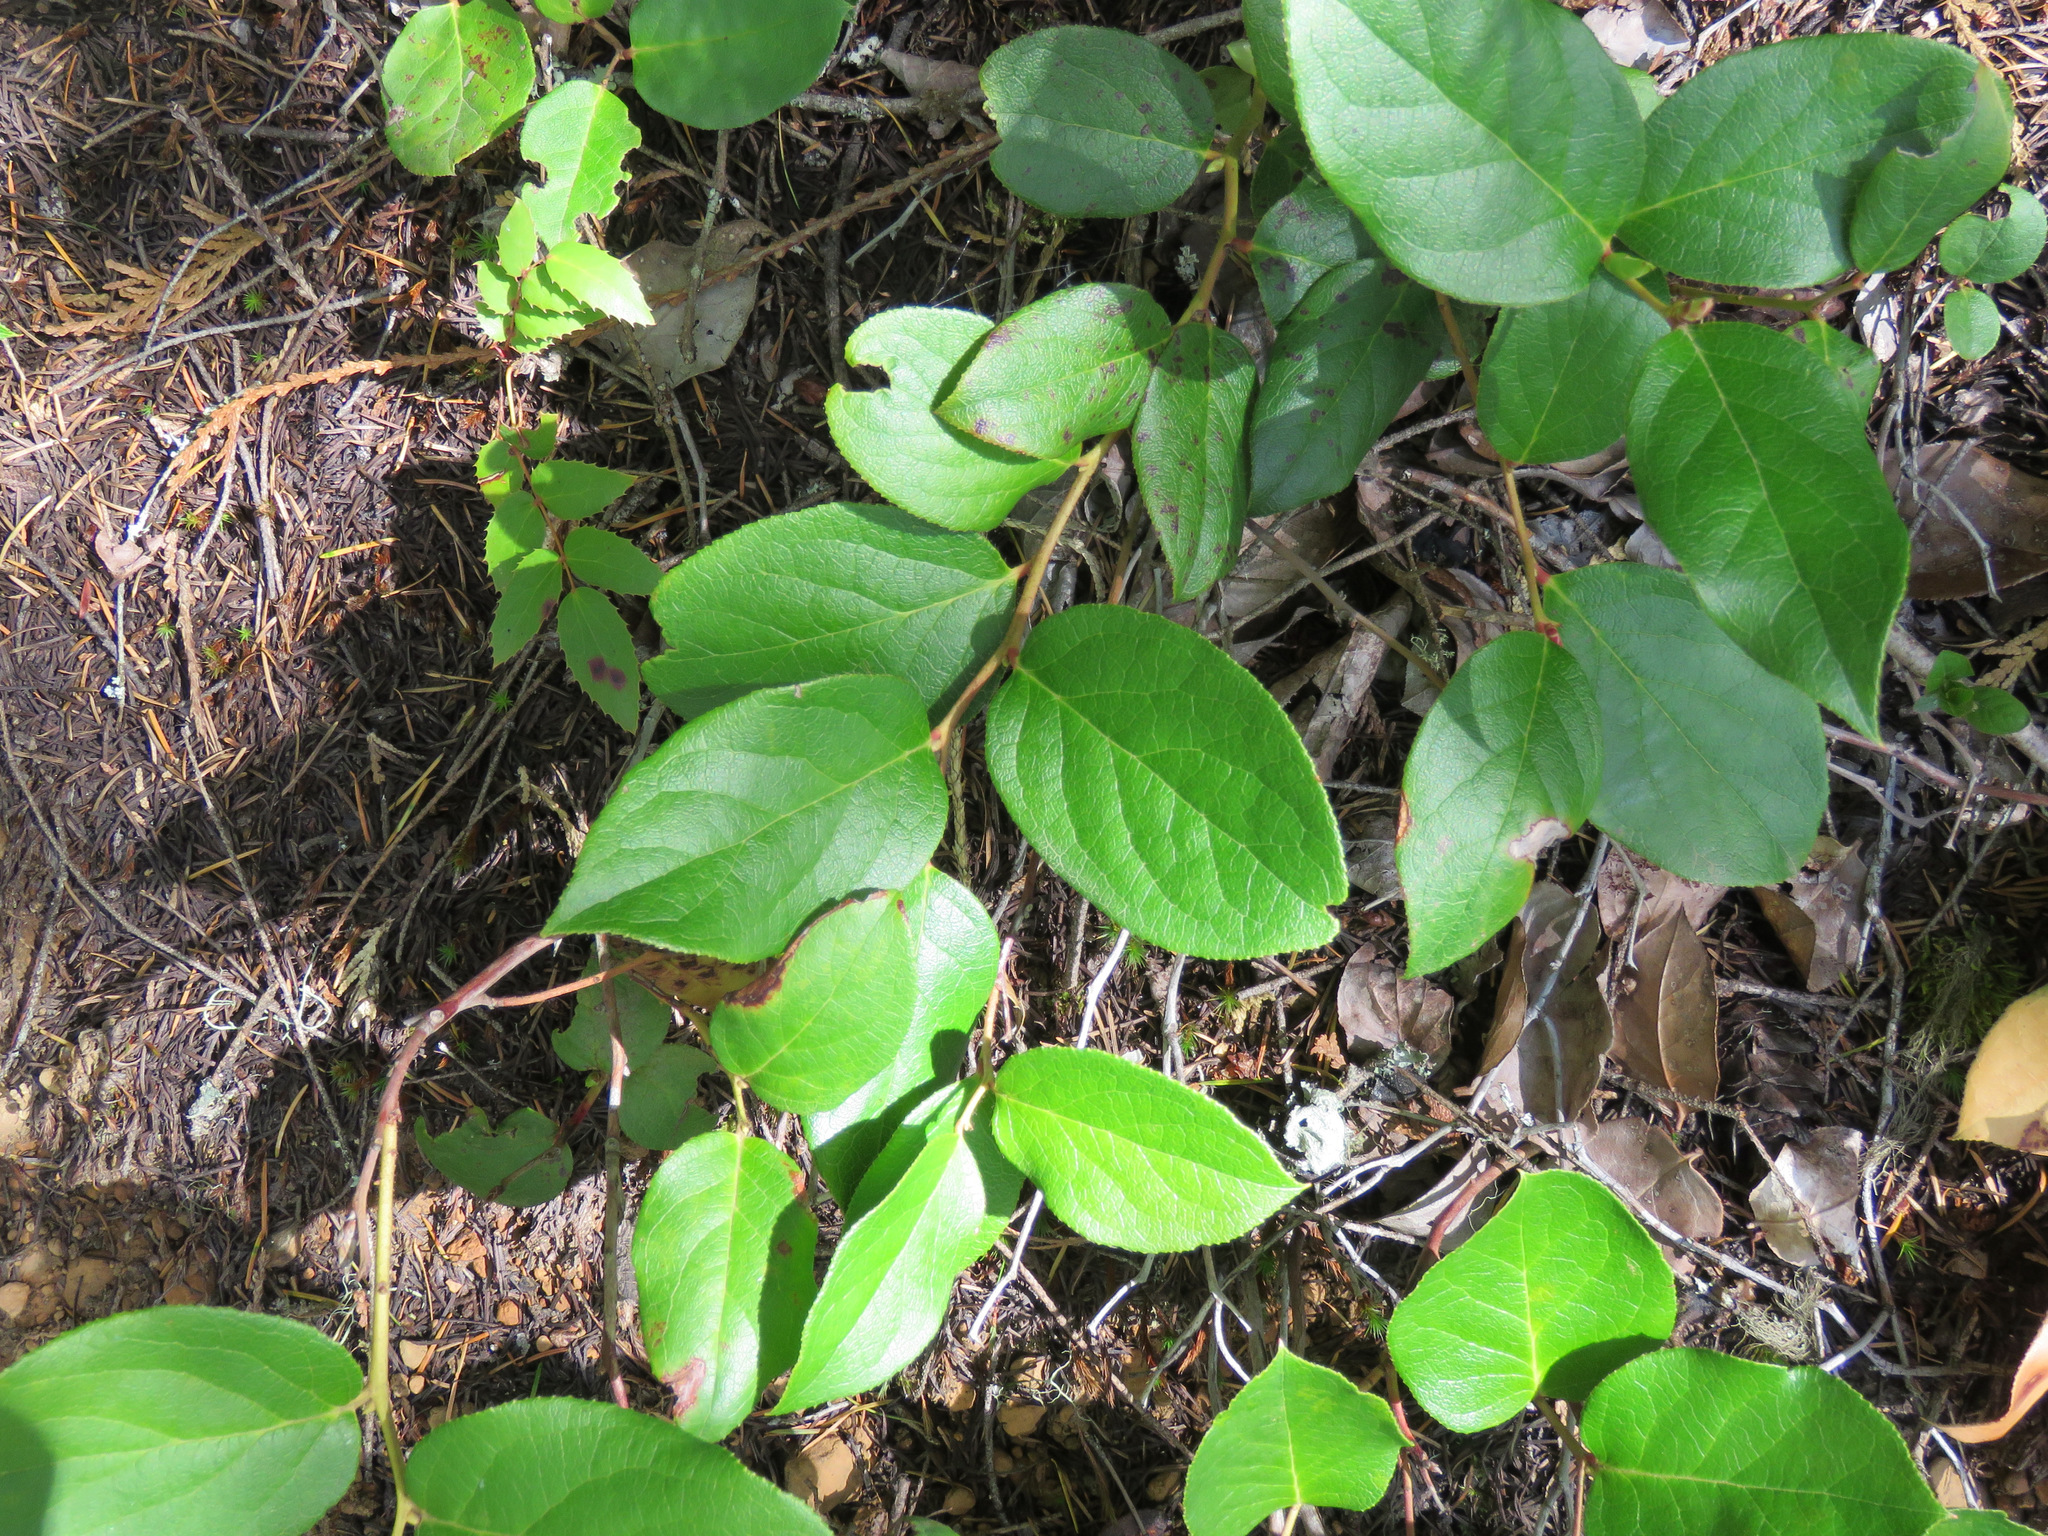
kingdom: Plantae
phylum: Tracheophyta
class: Magnoliopsida
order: Ericales
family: Ericaceae
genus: Gaultheria
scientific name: Gaultheria shallon
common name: Shallon
